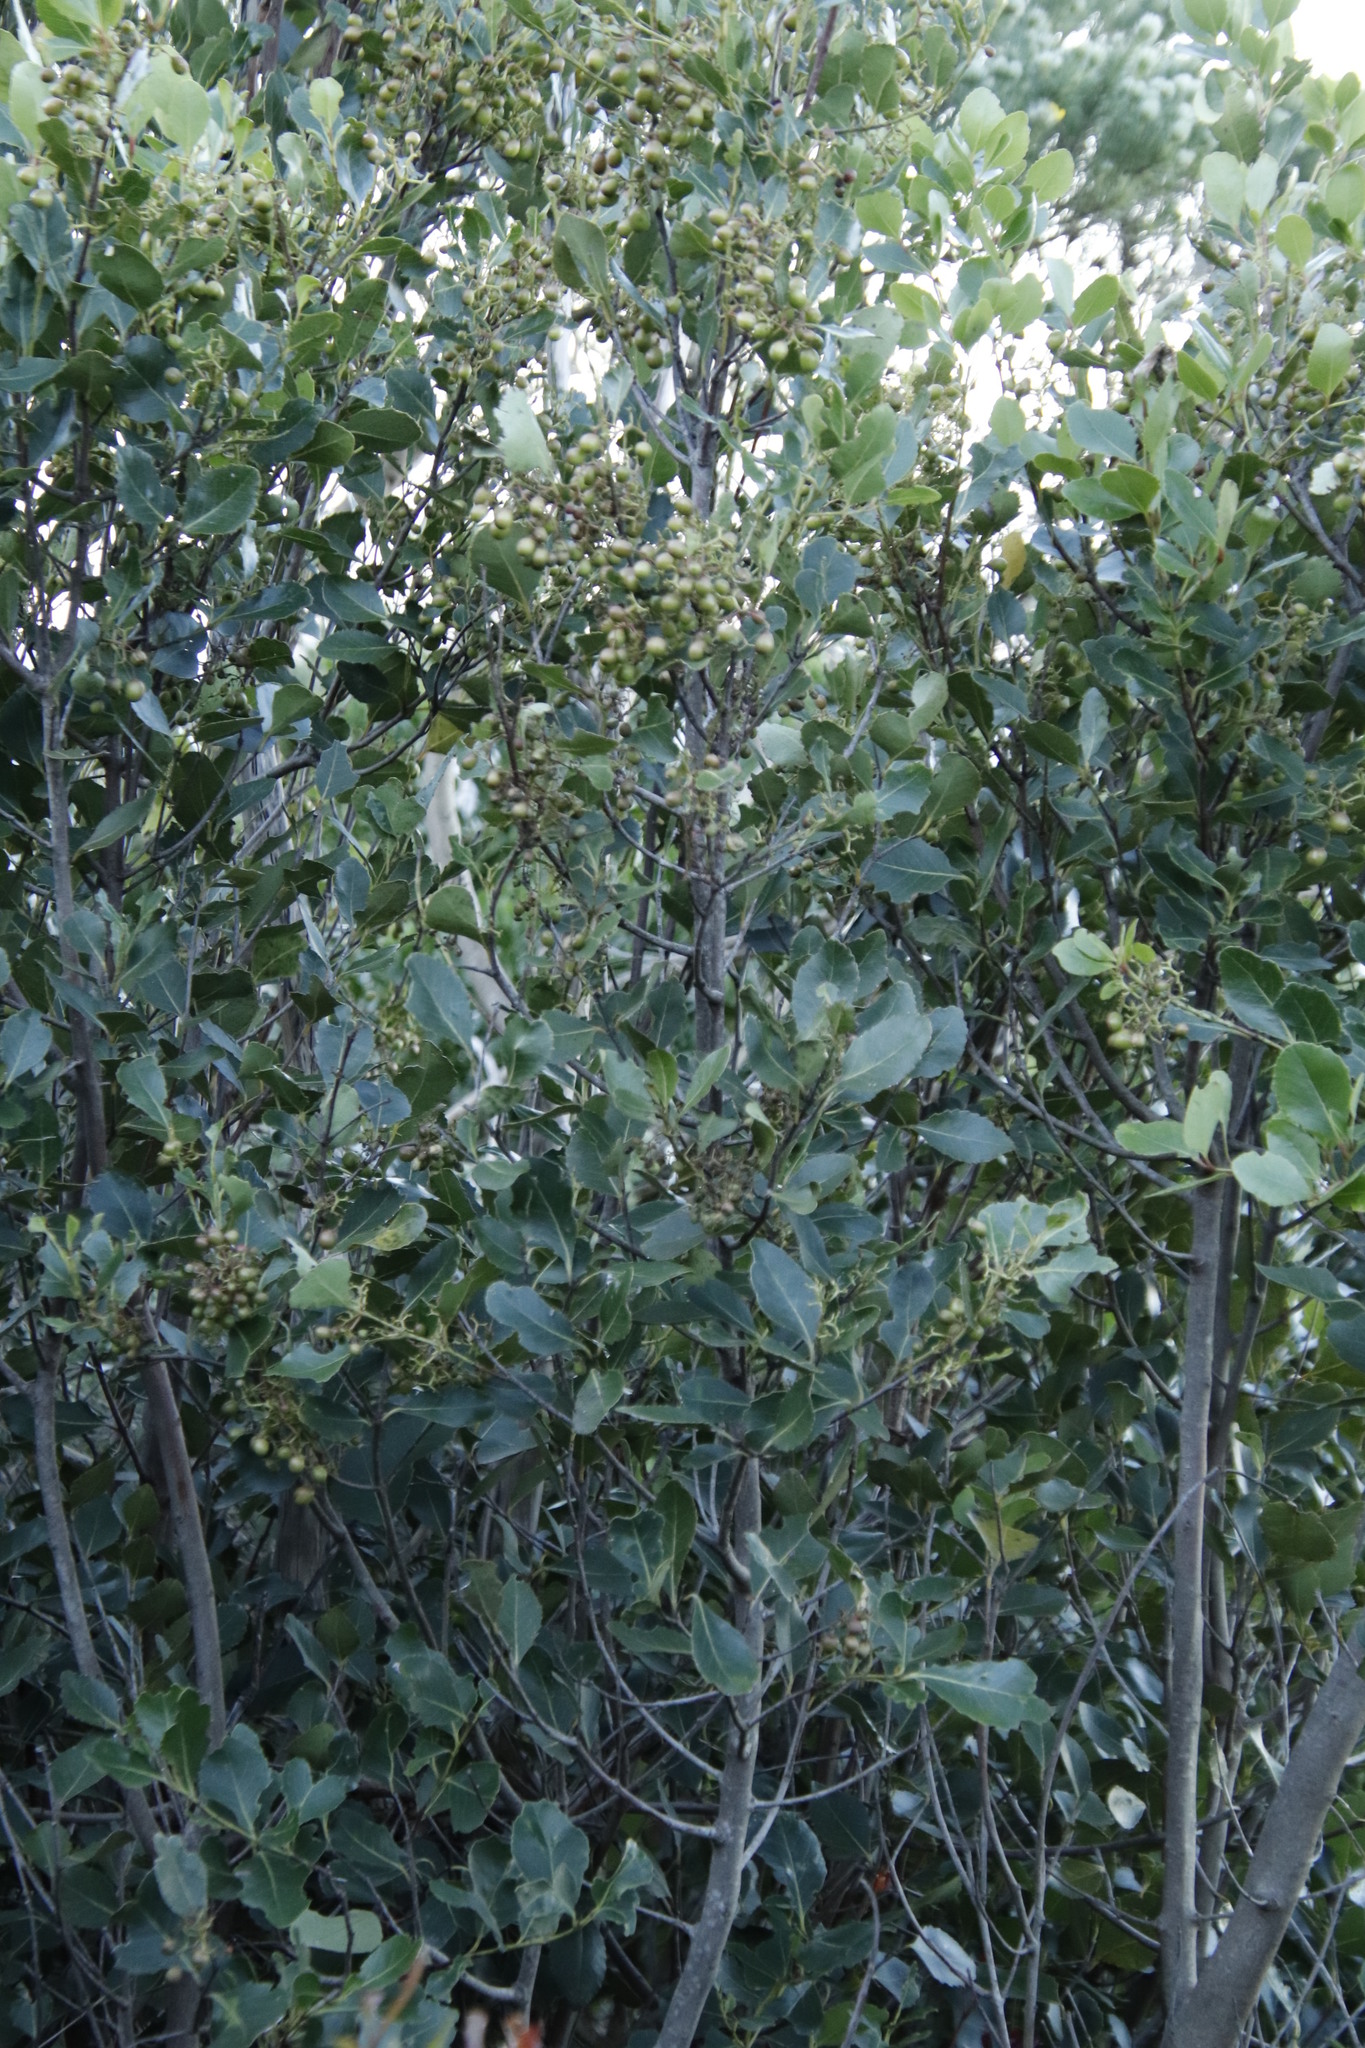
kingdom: Plantae
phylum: Tracheophyta
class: Magnoliopsida
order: Celastrales
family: Celastraceae
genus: Cassine
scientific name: Cassine peragua
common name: Cape saffron
